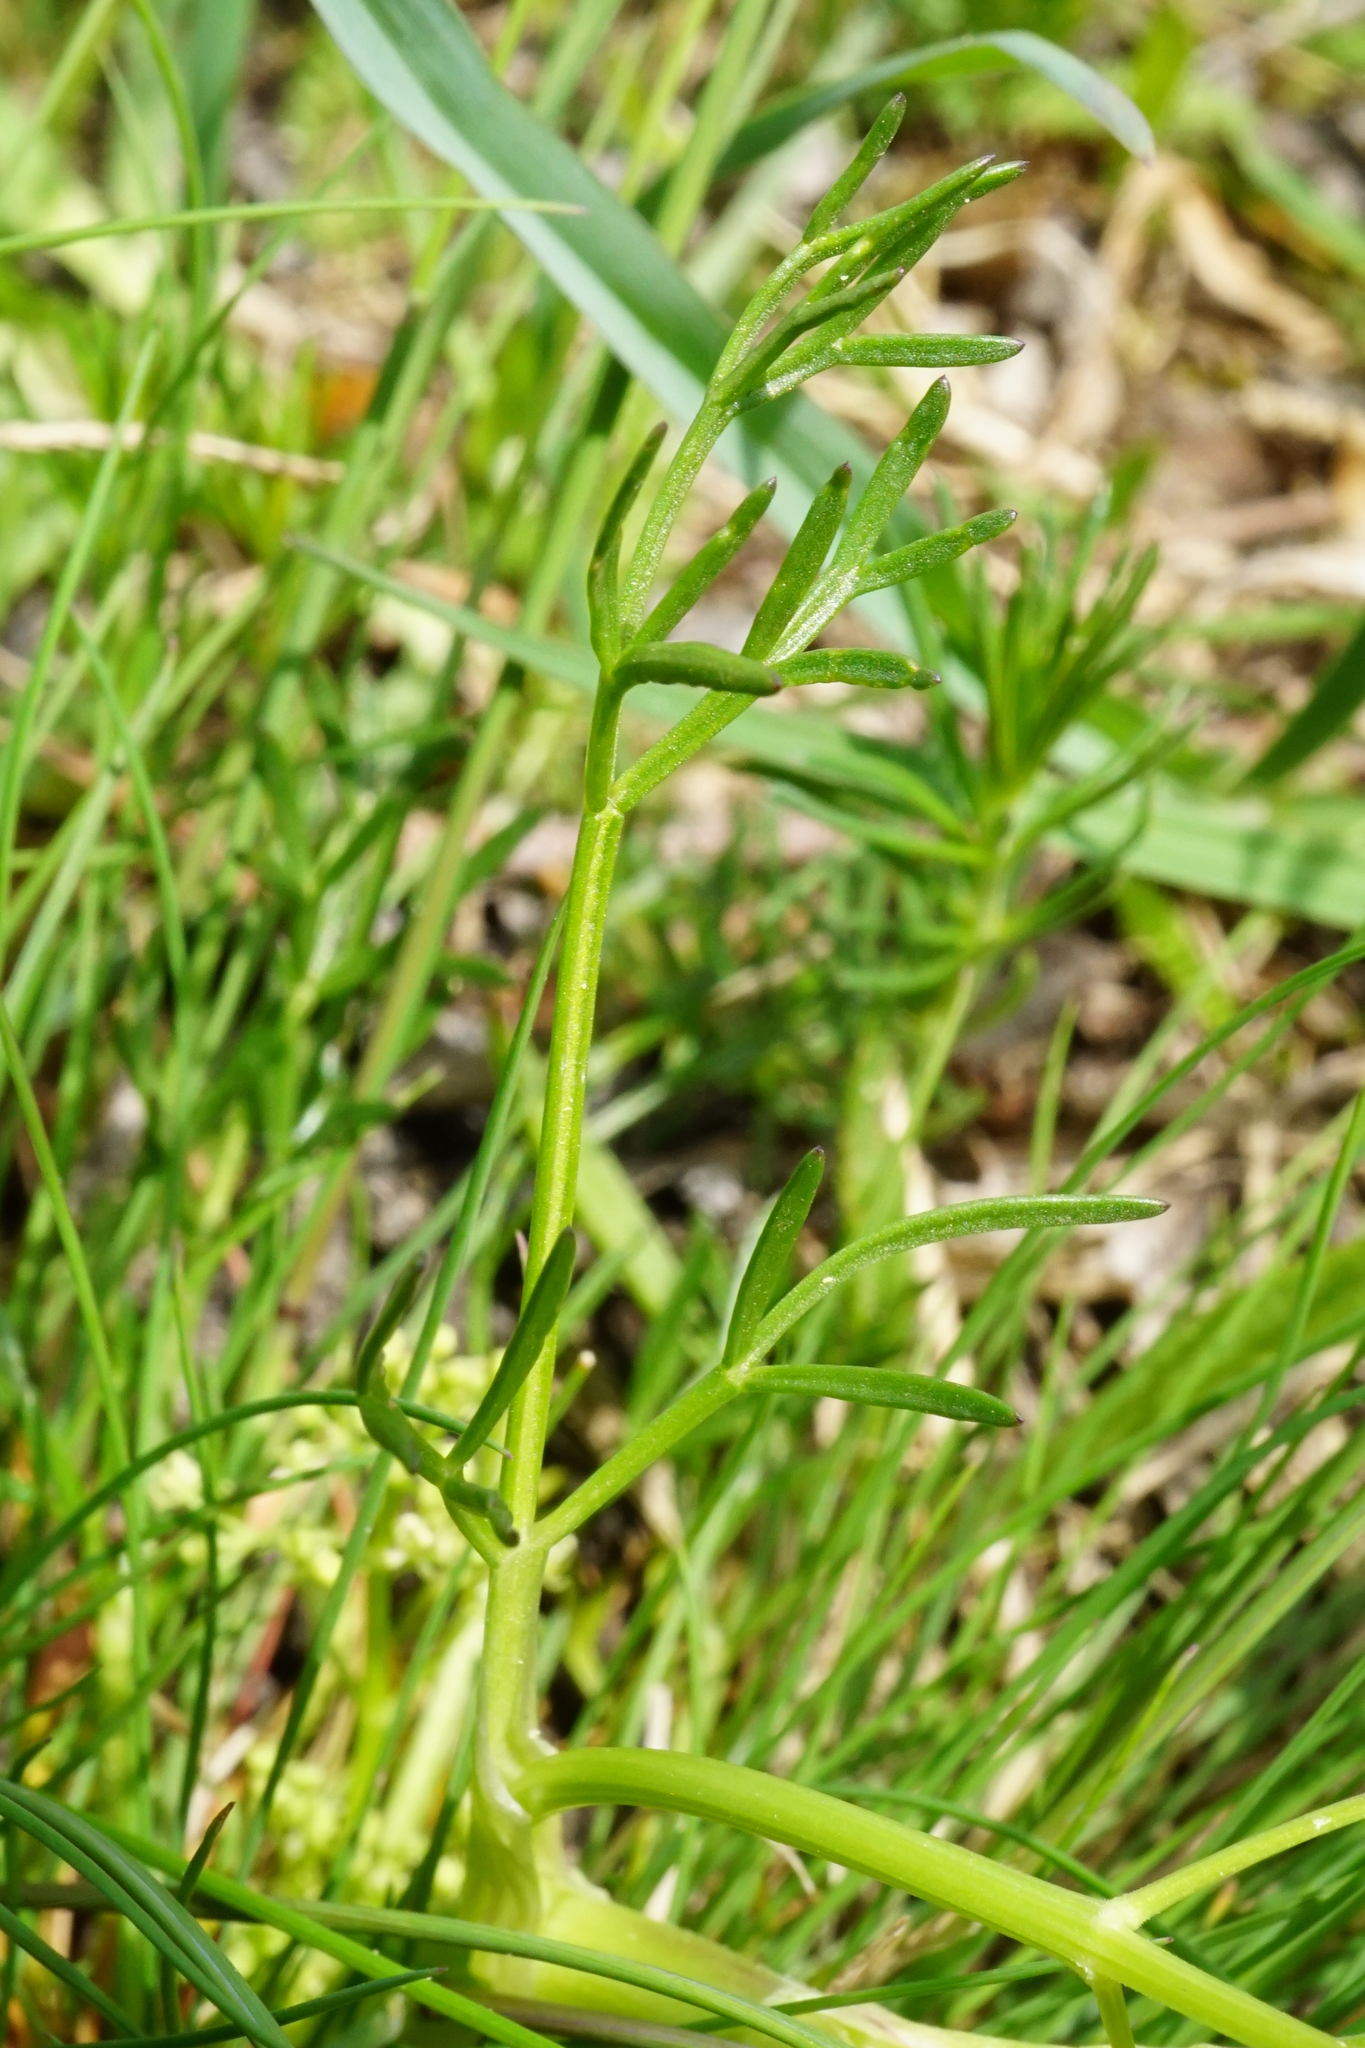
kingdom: Plantae
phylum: Tracheophyta
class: Magnoliopsida
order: Apiales
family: Apiaceae
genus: Trinia
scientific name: Trinia glauca
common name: Honewort
